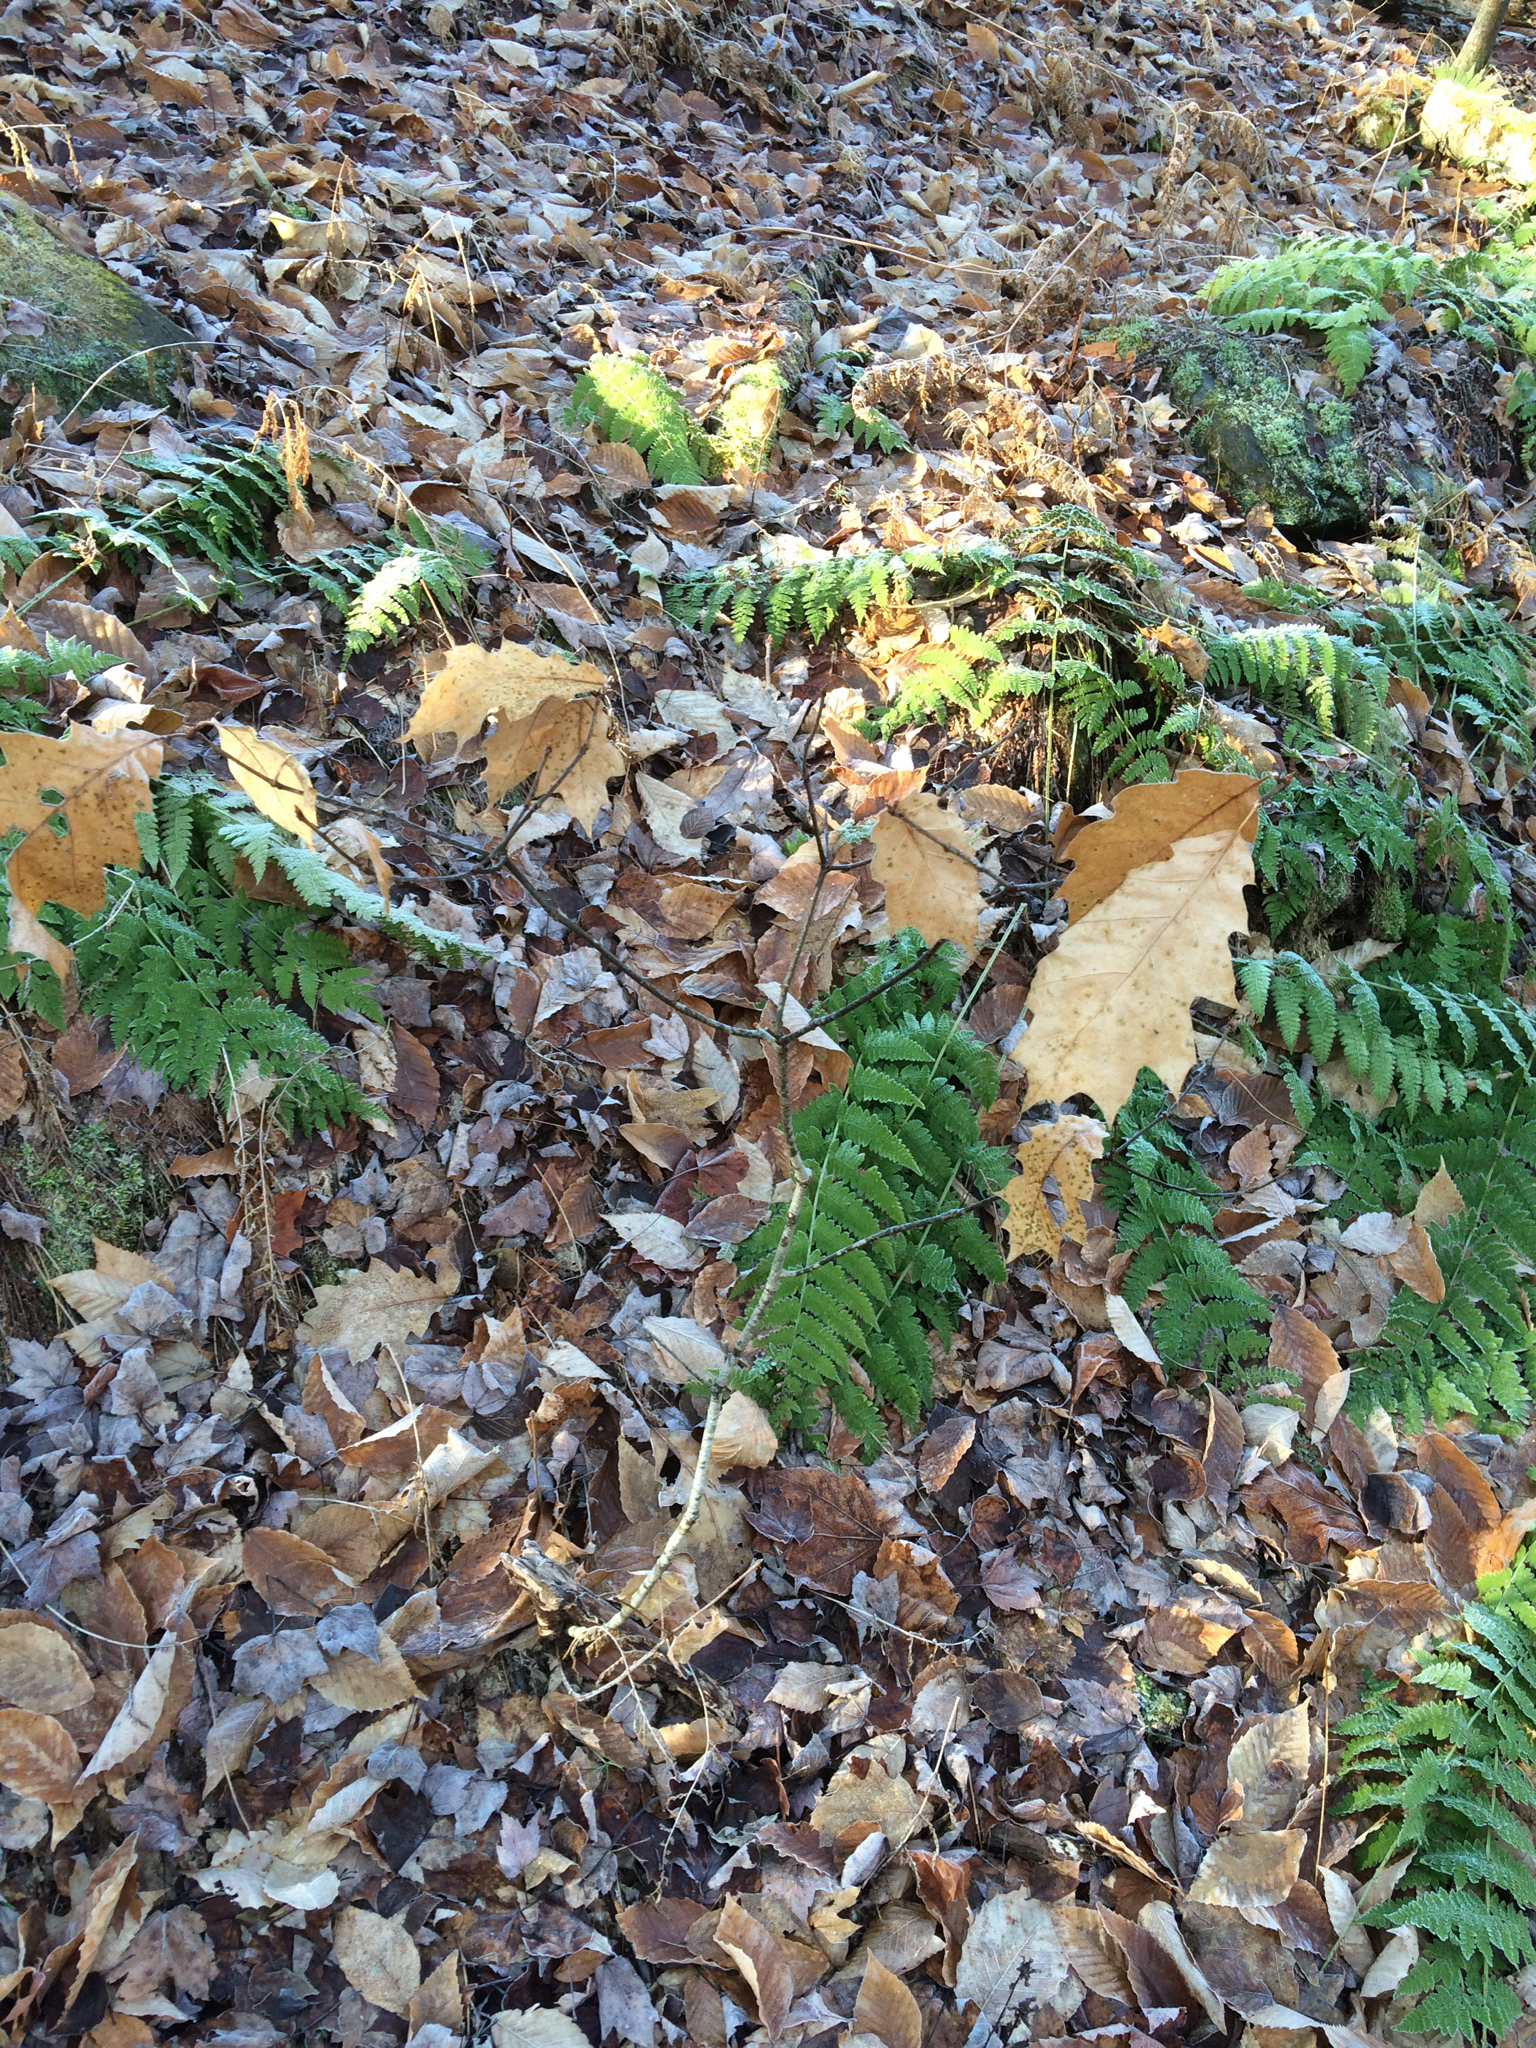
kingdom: Plantae
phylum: Tracheophyta
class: Magnoliopsida
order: Fagales
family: Fagaceae
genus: Quercus
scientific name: Quercus rubra
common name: Red oak
